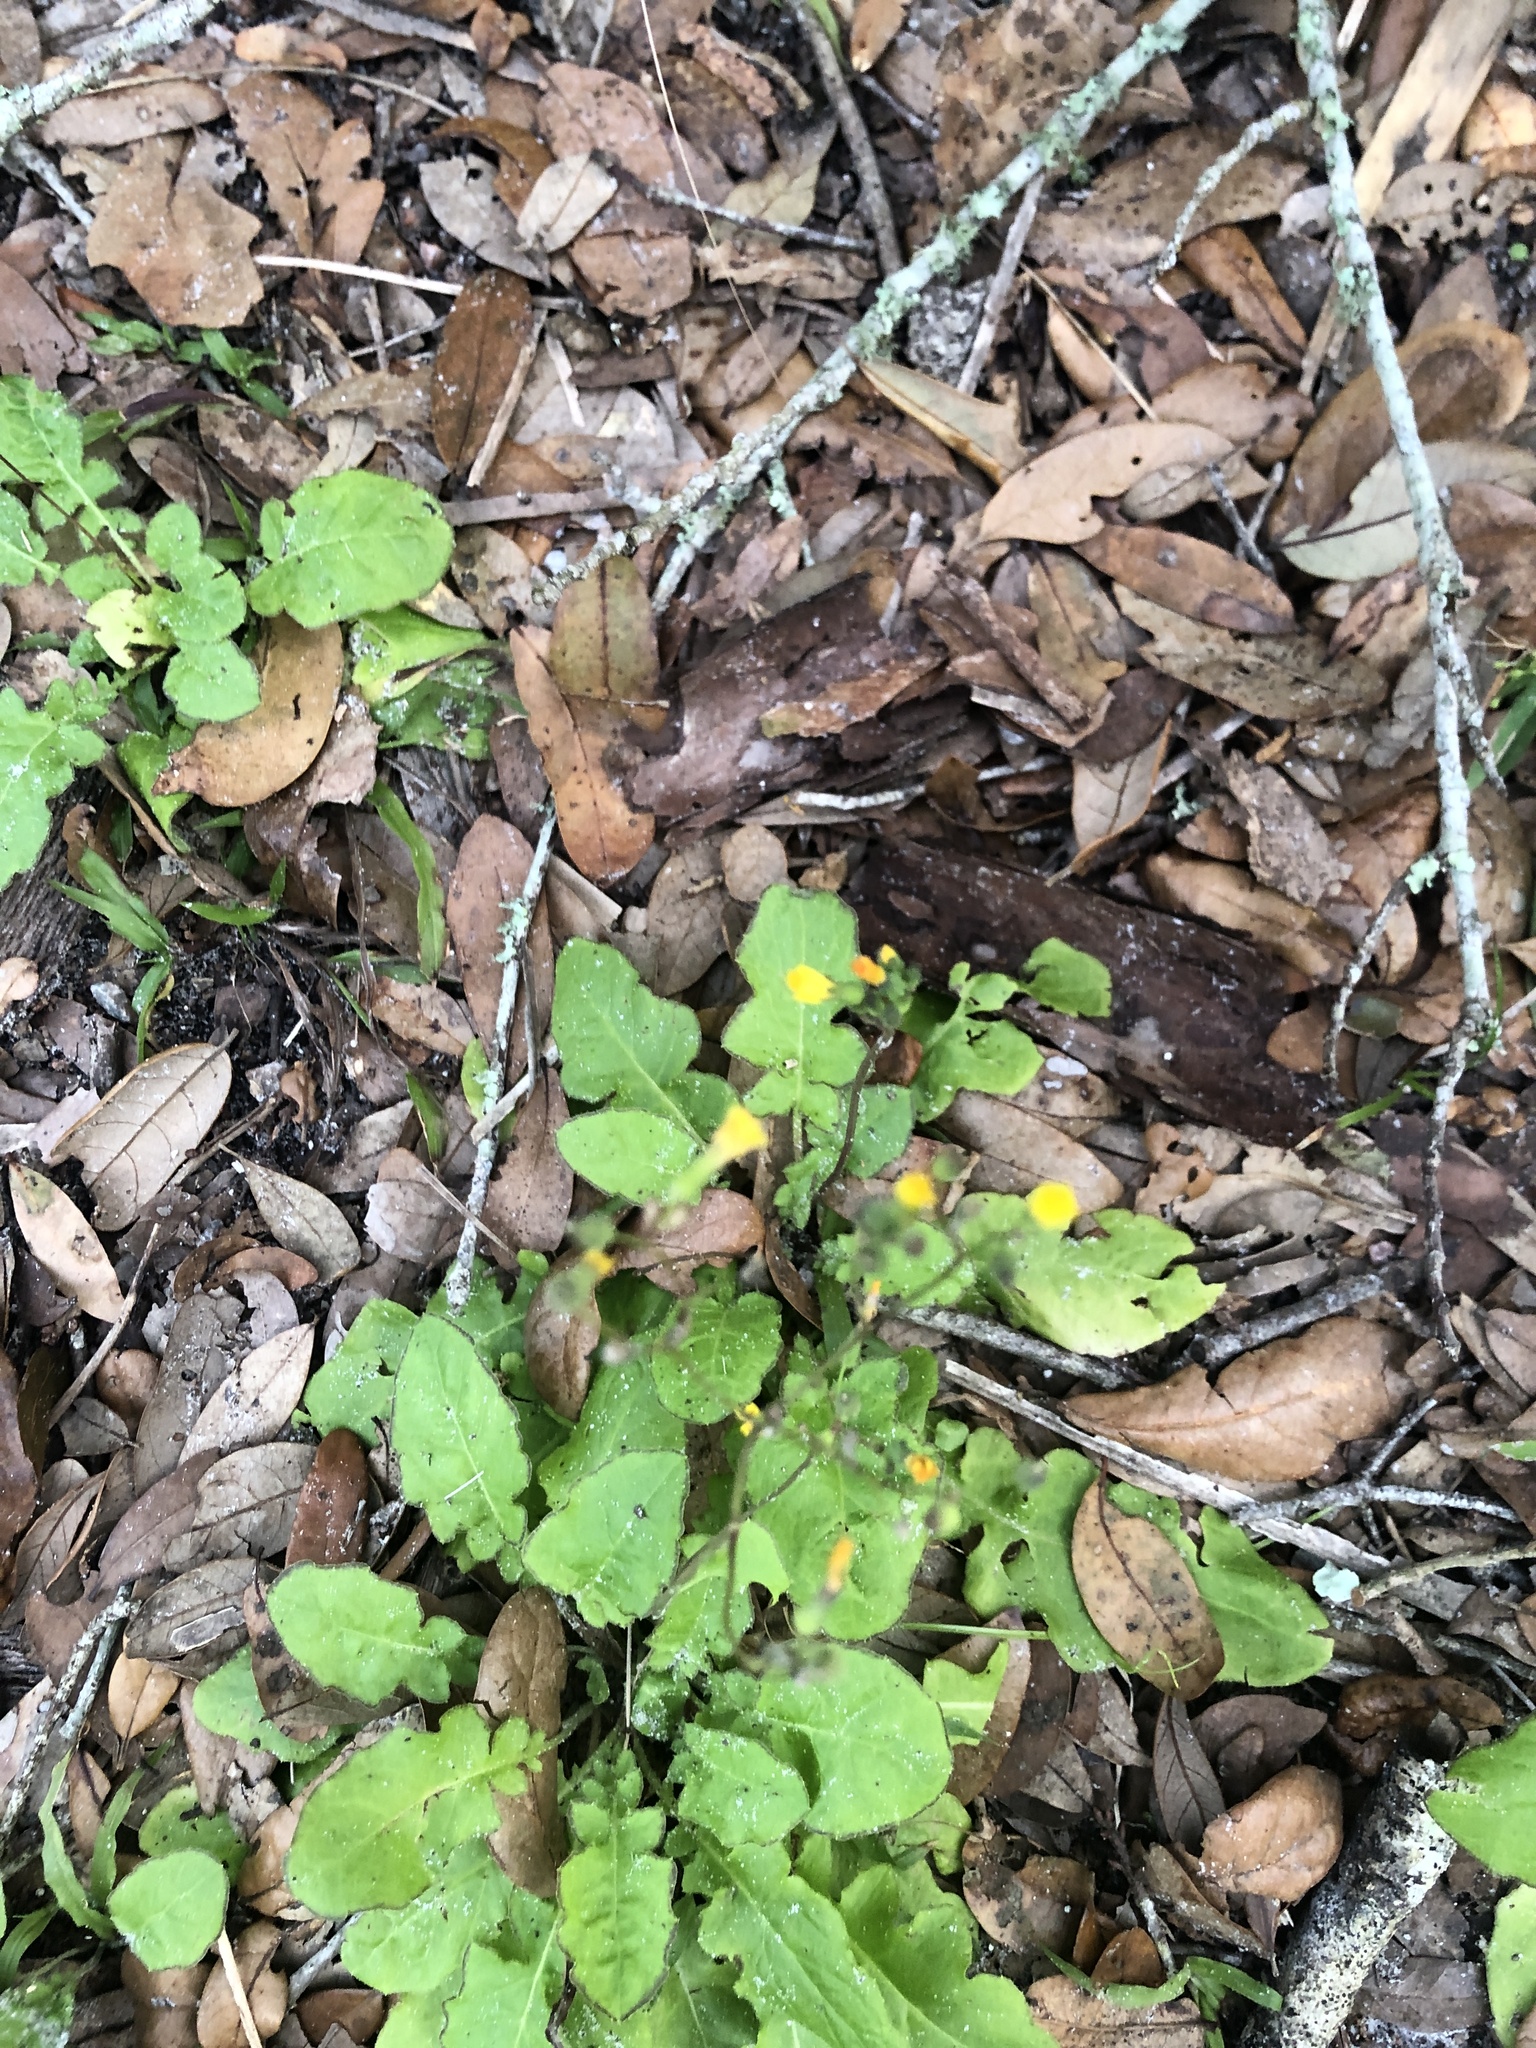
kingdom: Plantae
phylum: Tracheophyta
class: Magnoliopsida
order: Asterales
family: Asteraceae
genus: Youngia
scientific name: Youngia japonica
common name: Oriental false hawksbeard
